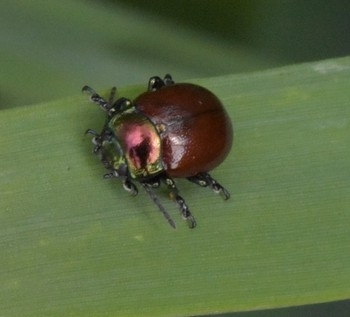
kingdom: Animalia
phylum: Arthropoda
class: Insecta
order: Coleoptera
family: Chrysomelidae
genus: Chrysomela
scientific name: Chrysomela polita
